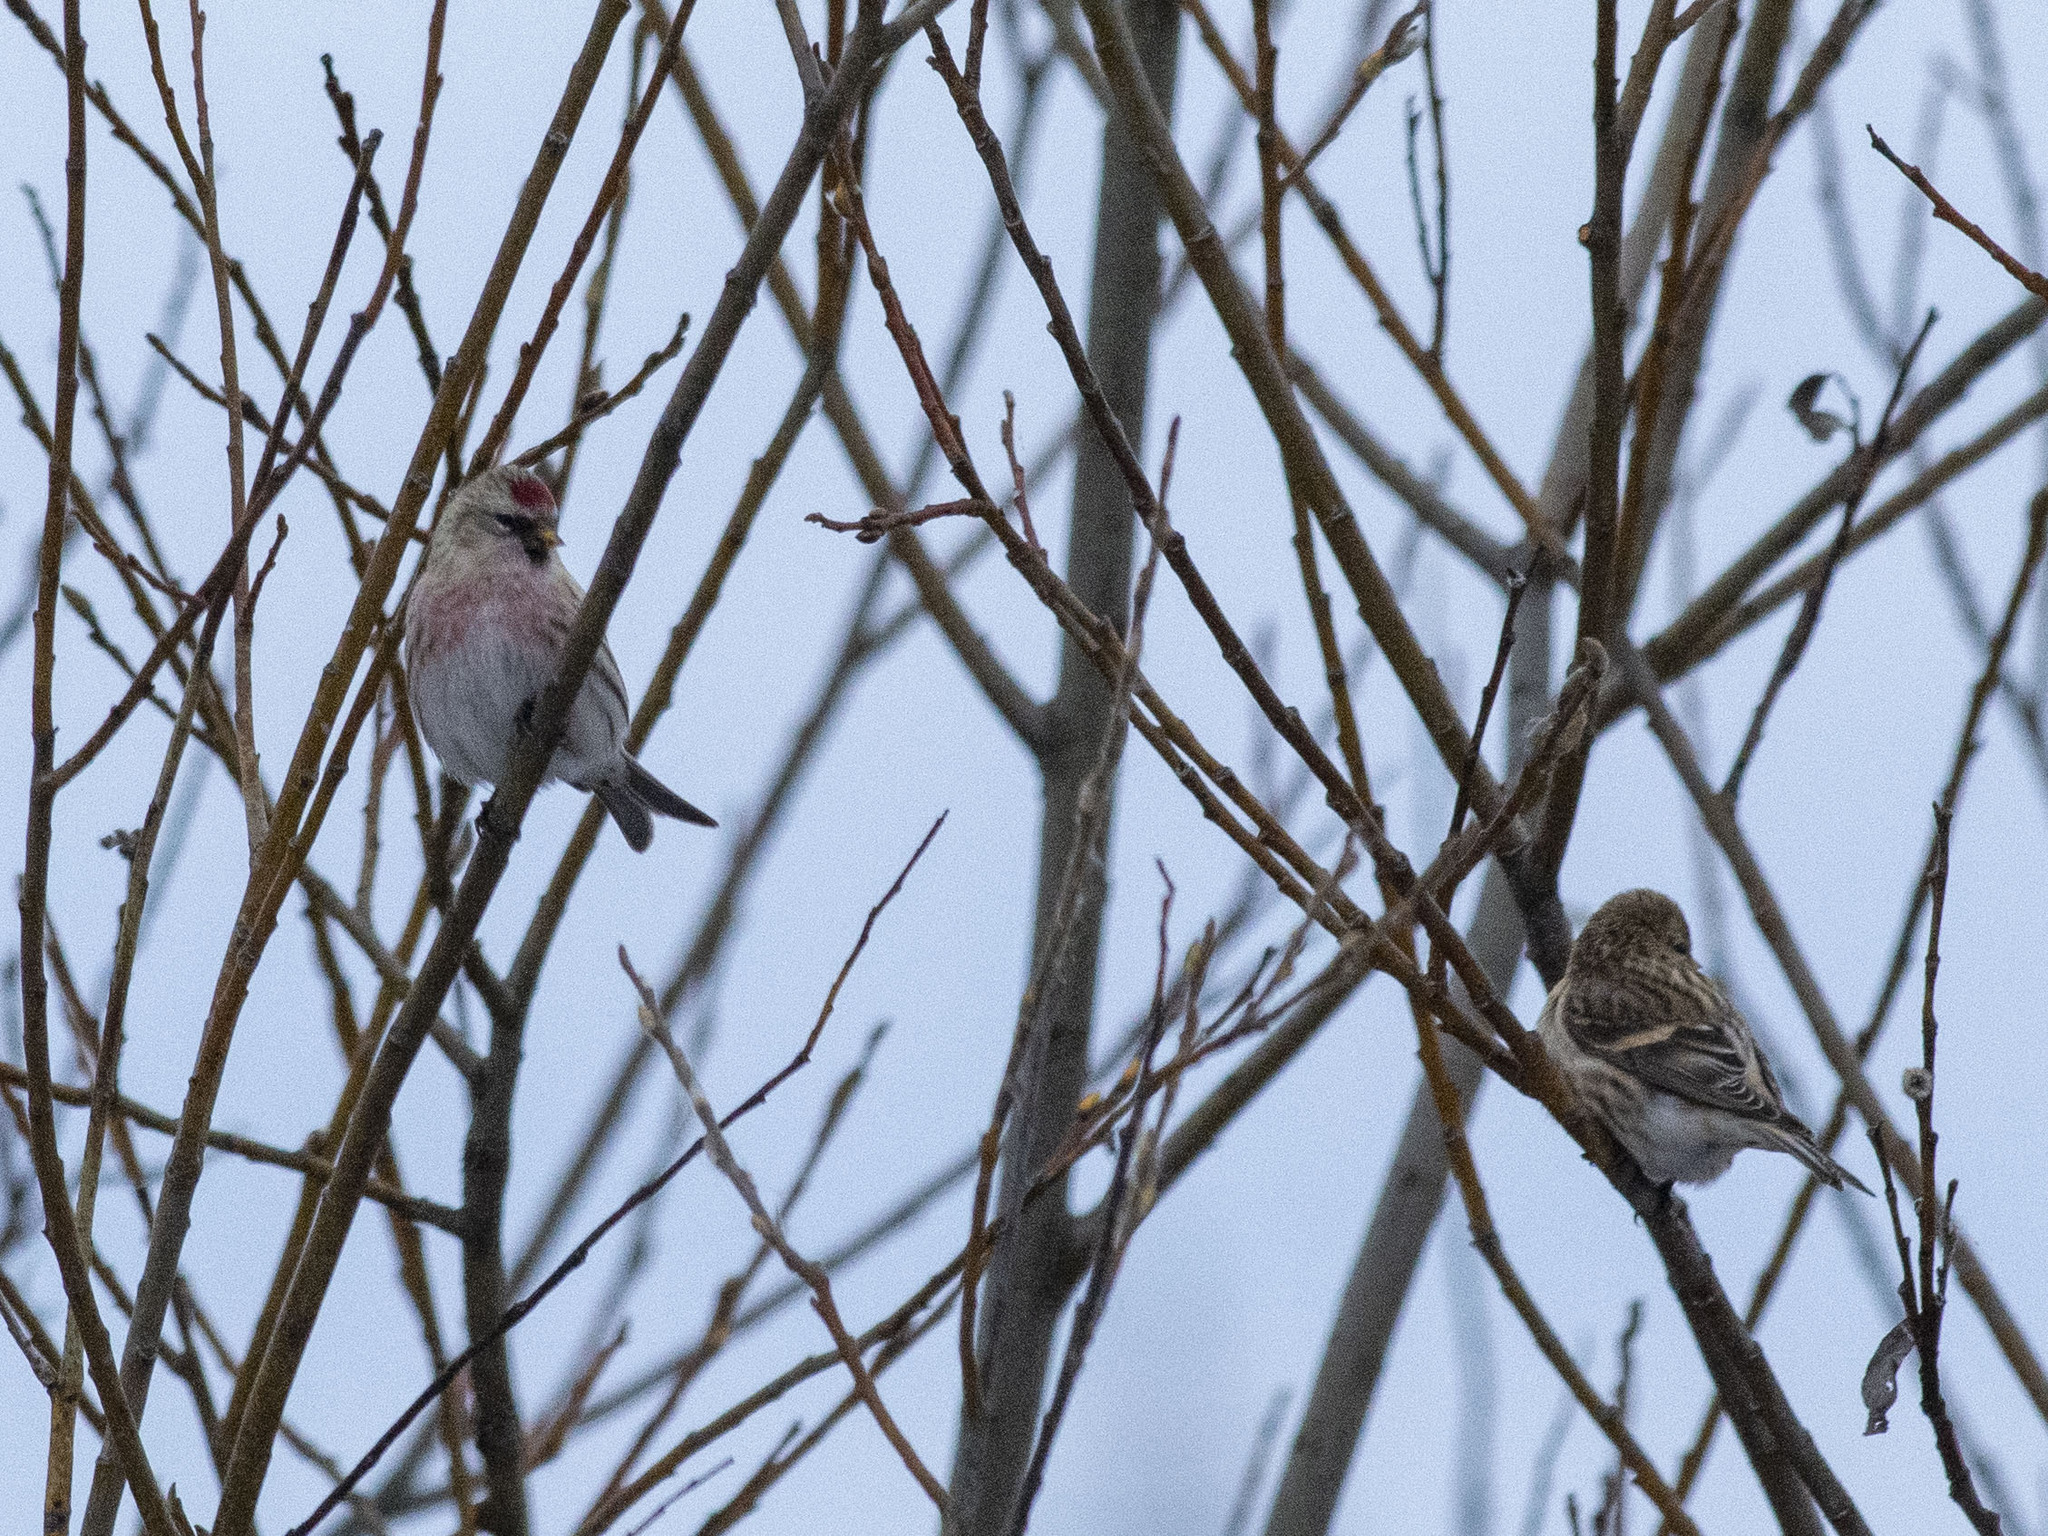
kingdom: Animalia
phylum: Chordata
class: Aves
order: Passeriformes
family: Fringillidae
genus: Acanthis
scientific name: Acanthis flammea
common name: Common redpoll
